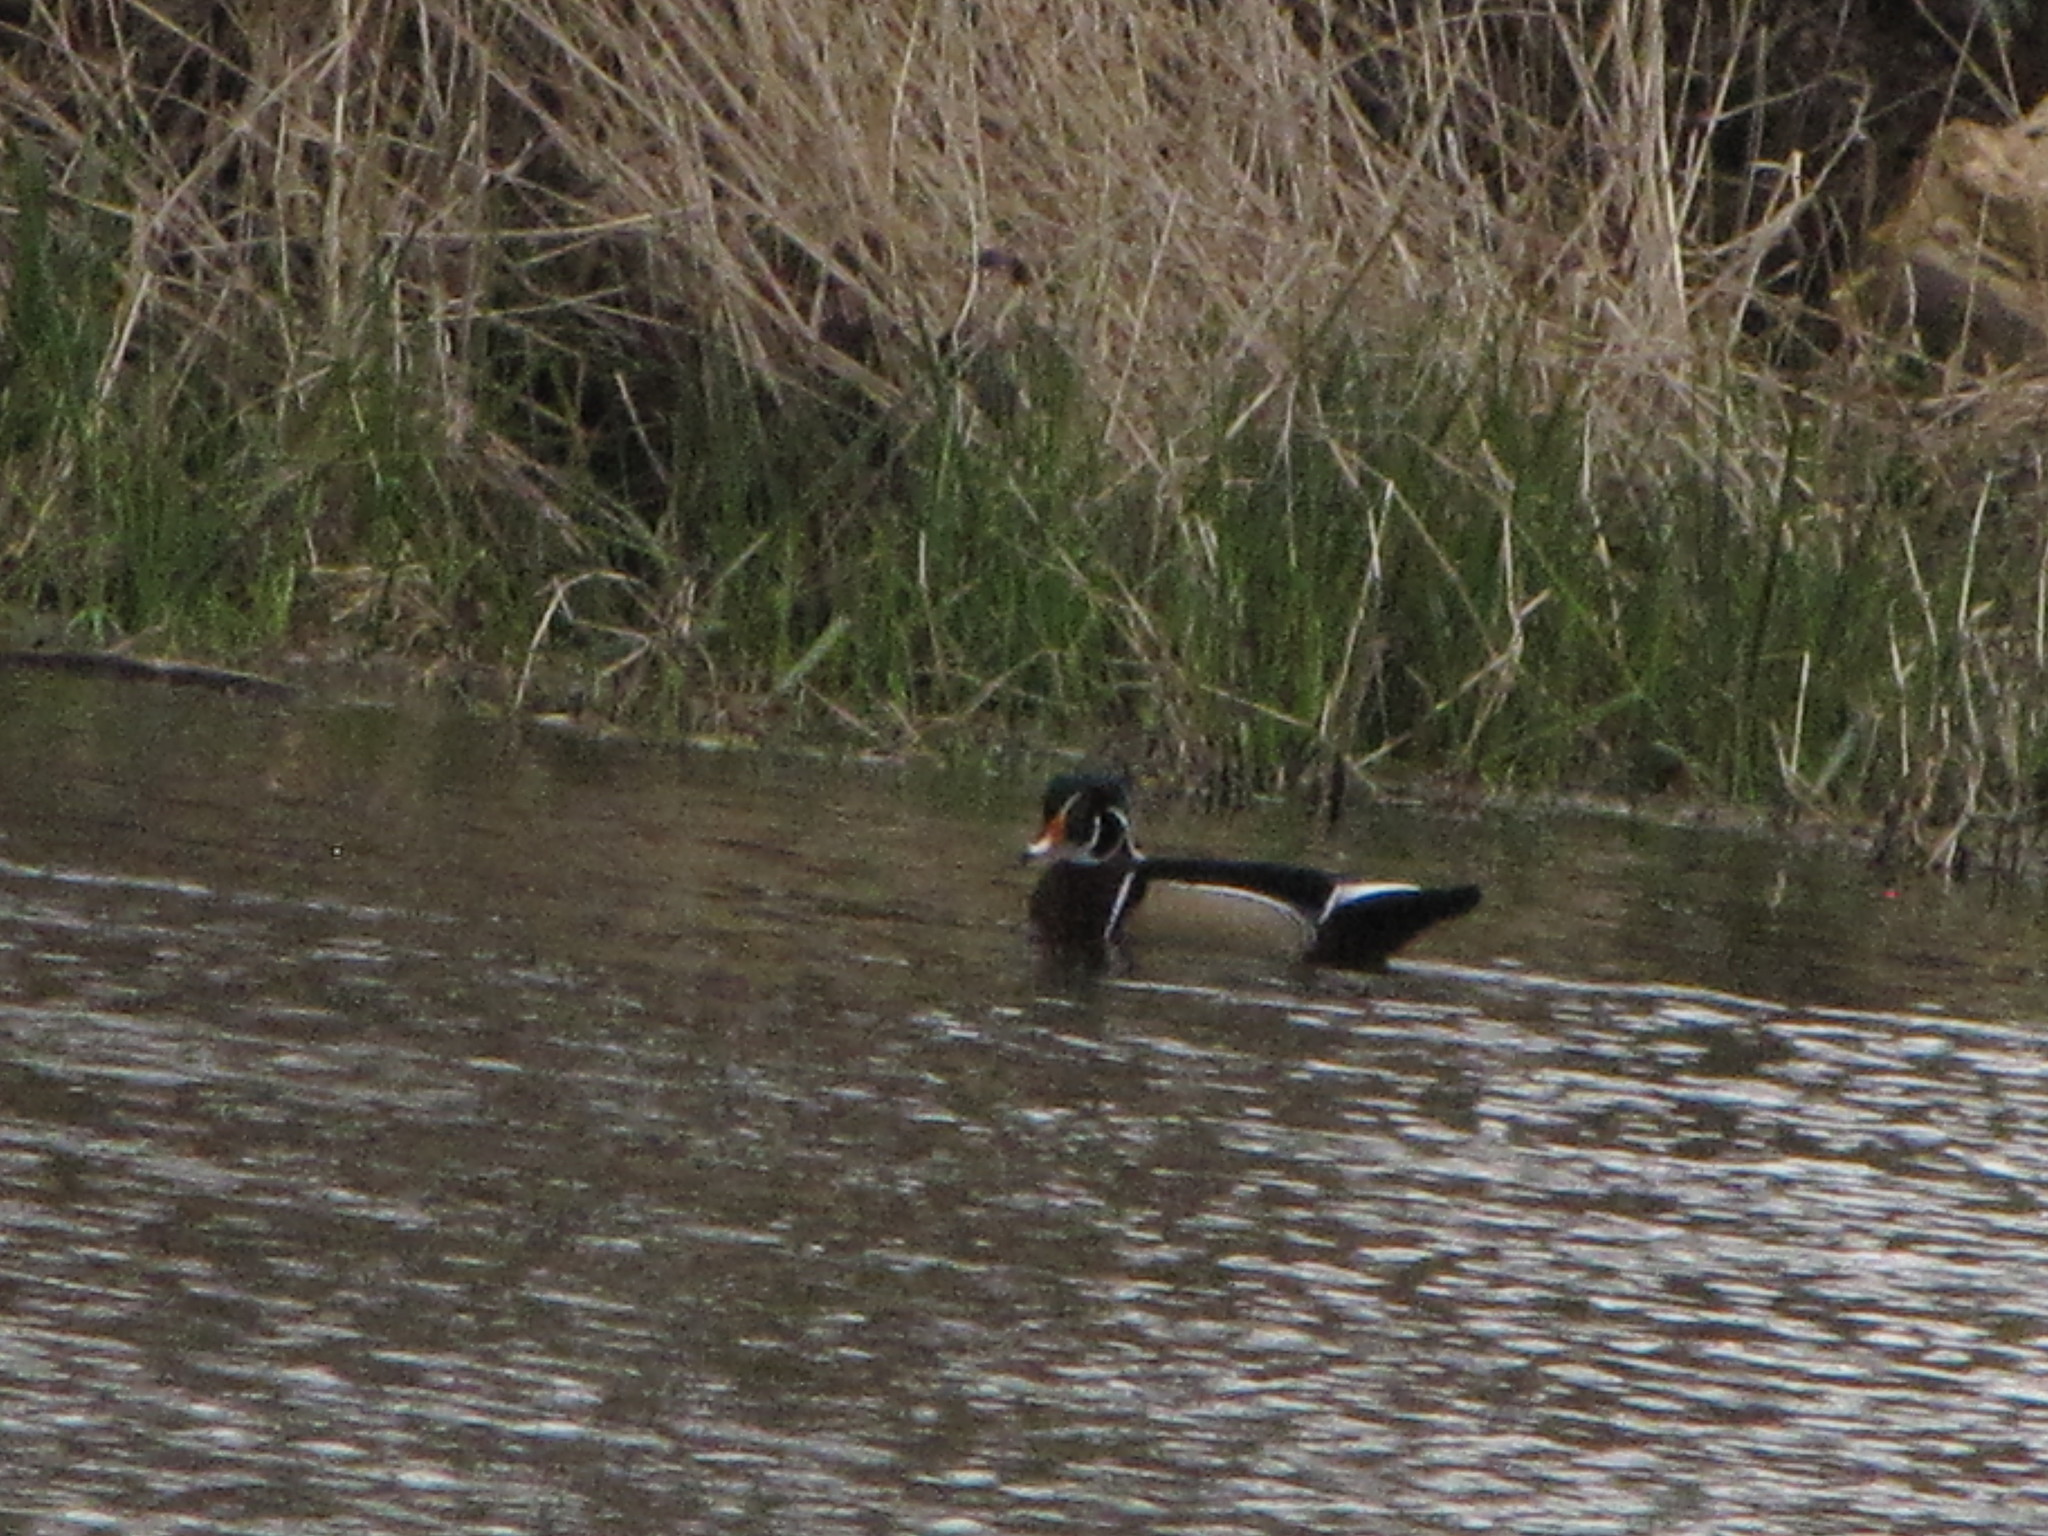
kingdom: Animalia
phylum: Chordata
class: Aves
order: Anseriformes
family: Anatidae
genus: Aix
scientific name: Aix sponsa
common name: Wood duck
